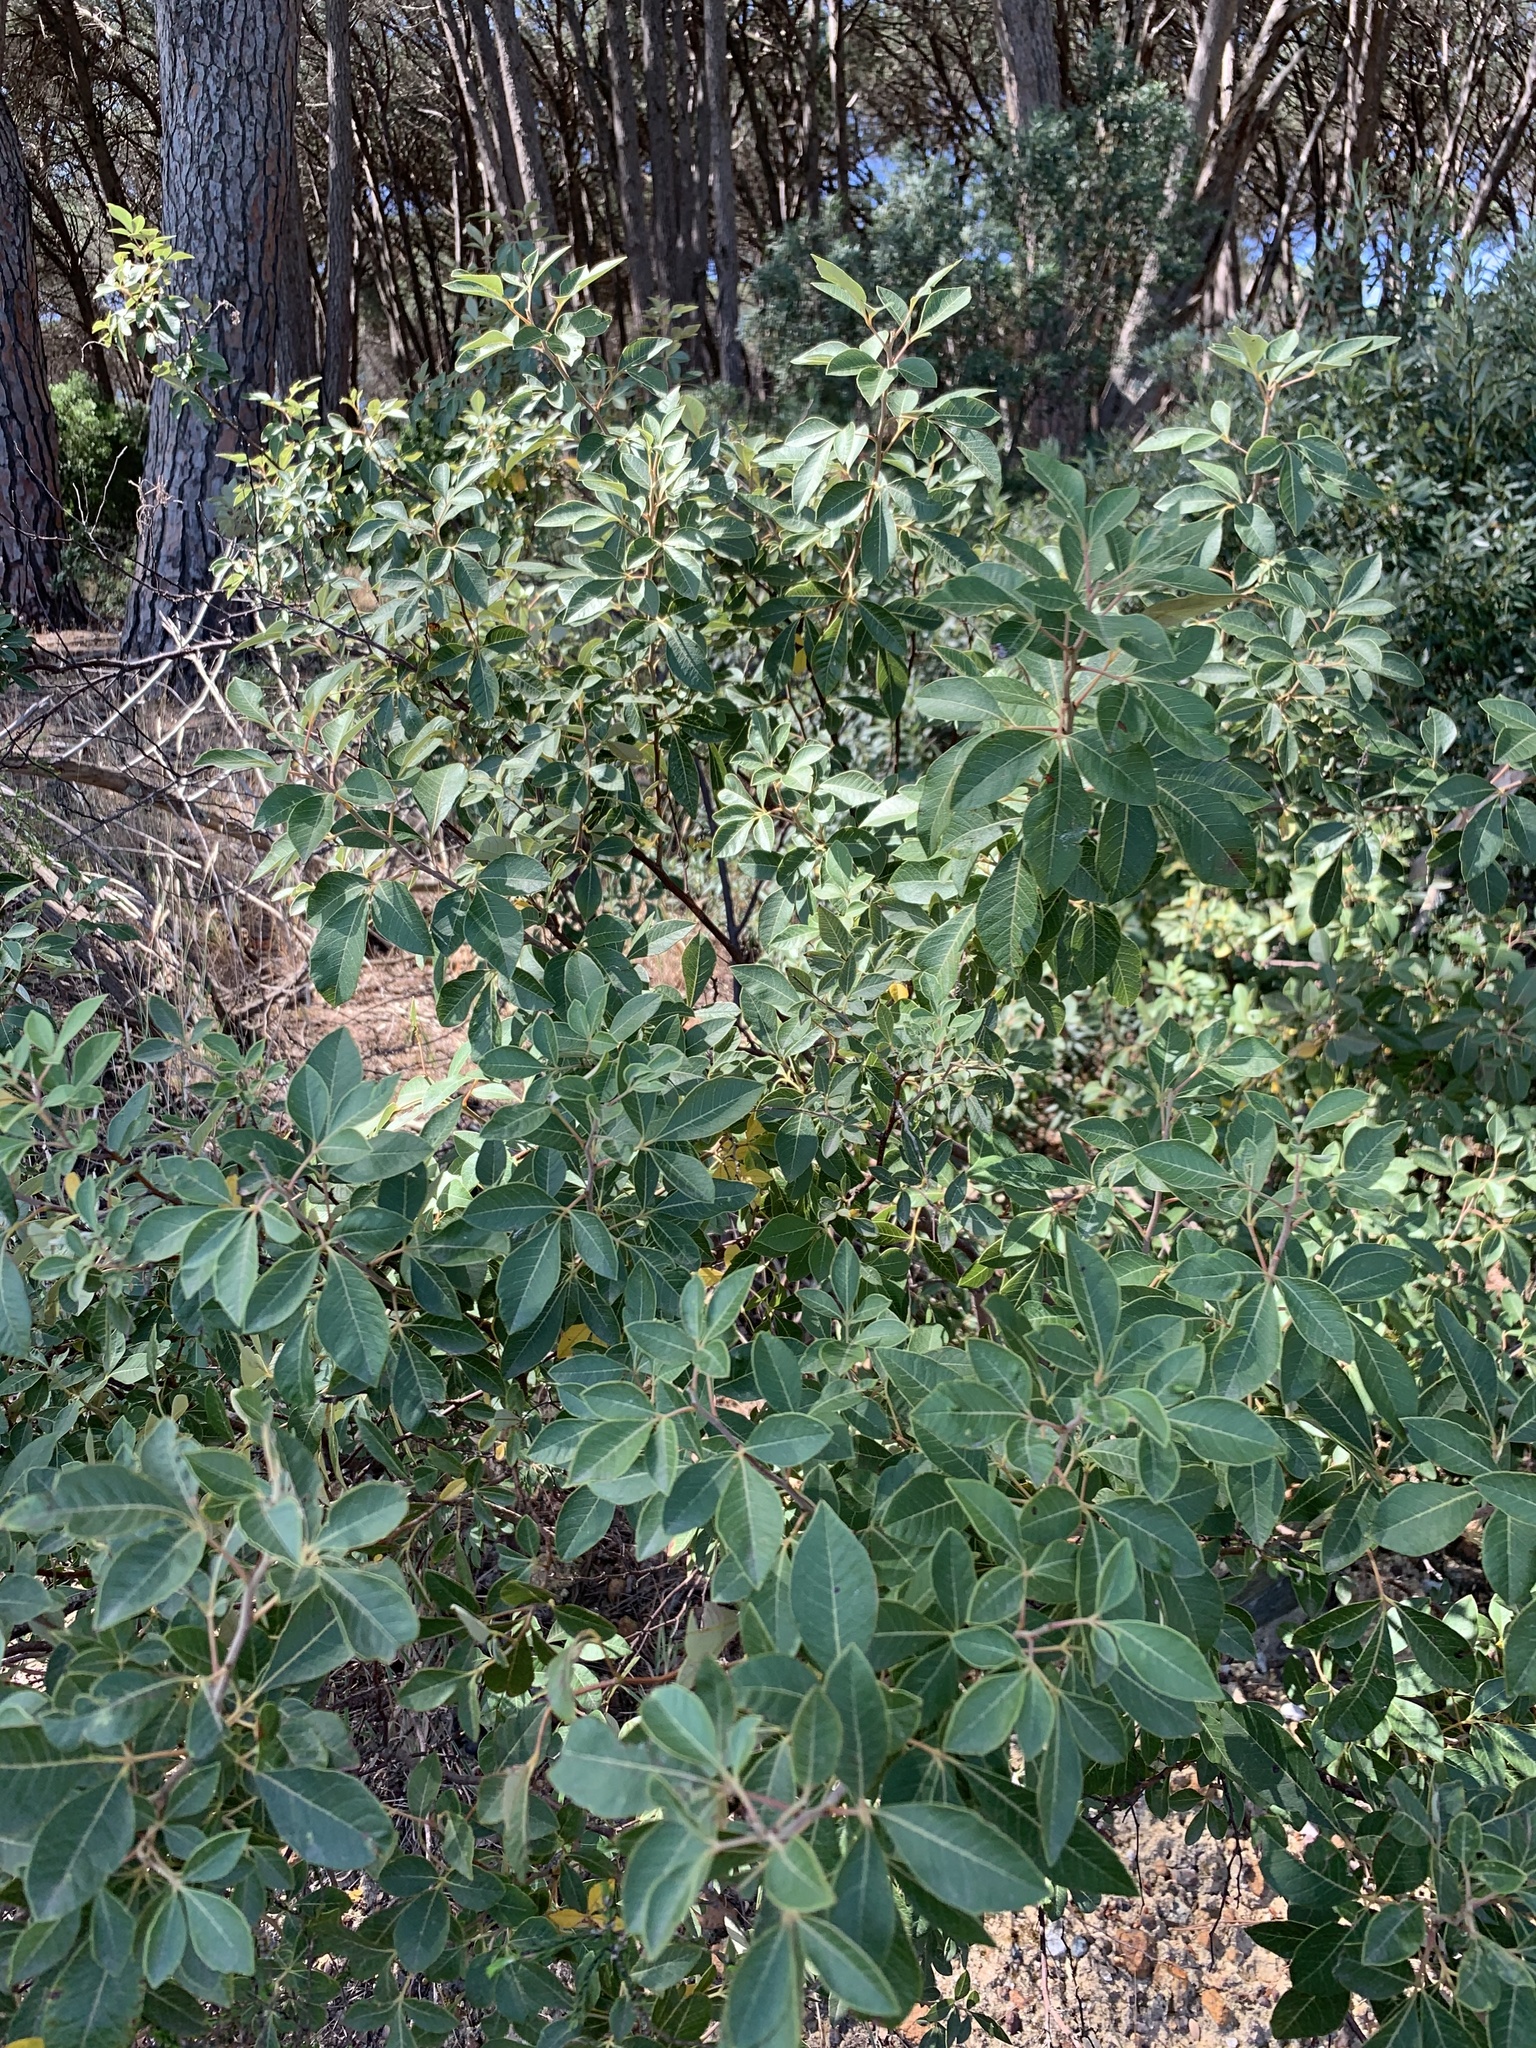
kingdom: Plantae
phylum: Tracheophyta
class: Magnoliopsida
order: Sapindales
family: Anacardiaceae
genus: Searsia
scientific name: Searsia tomentosa
